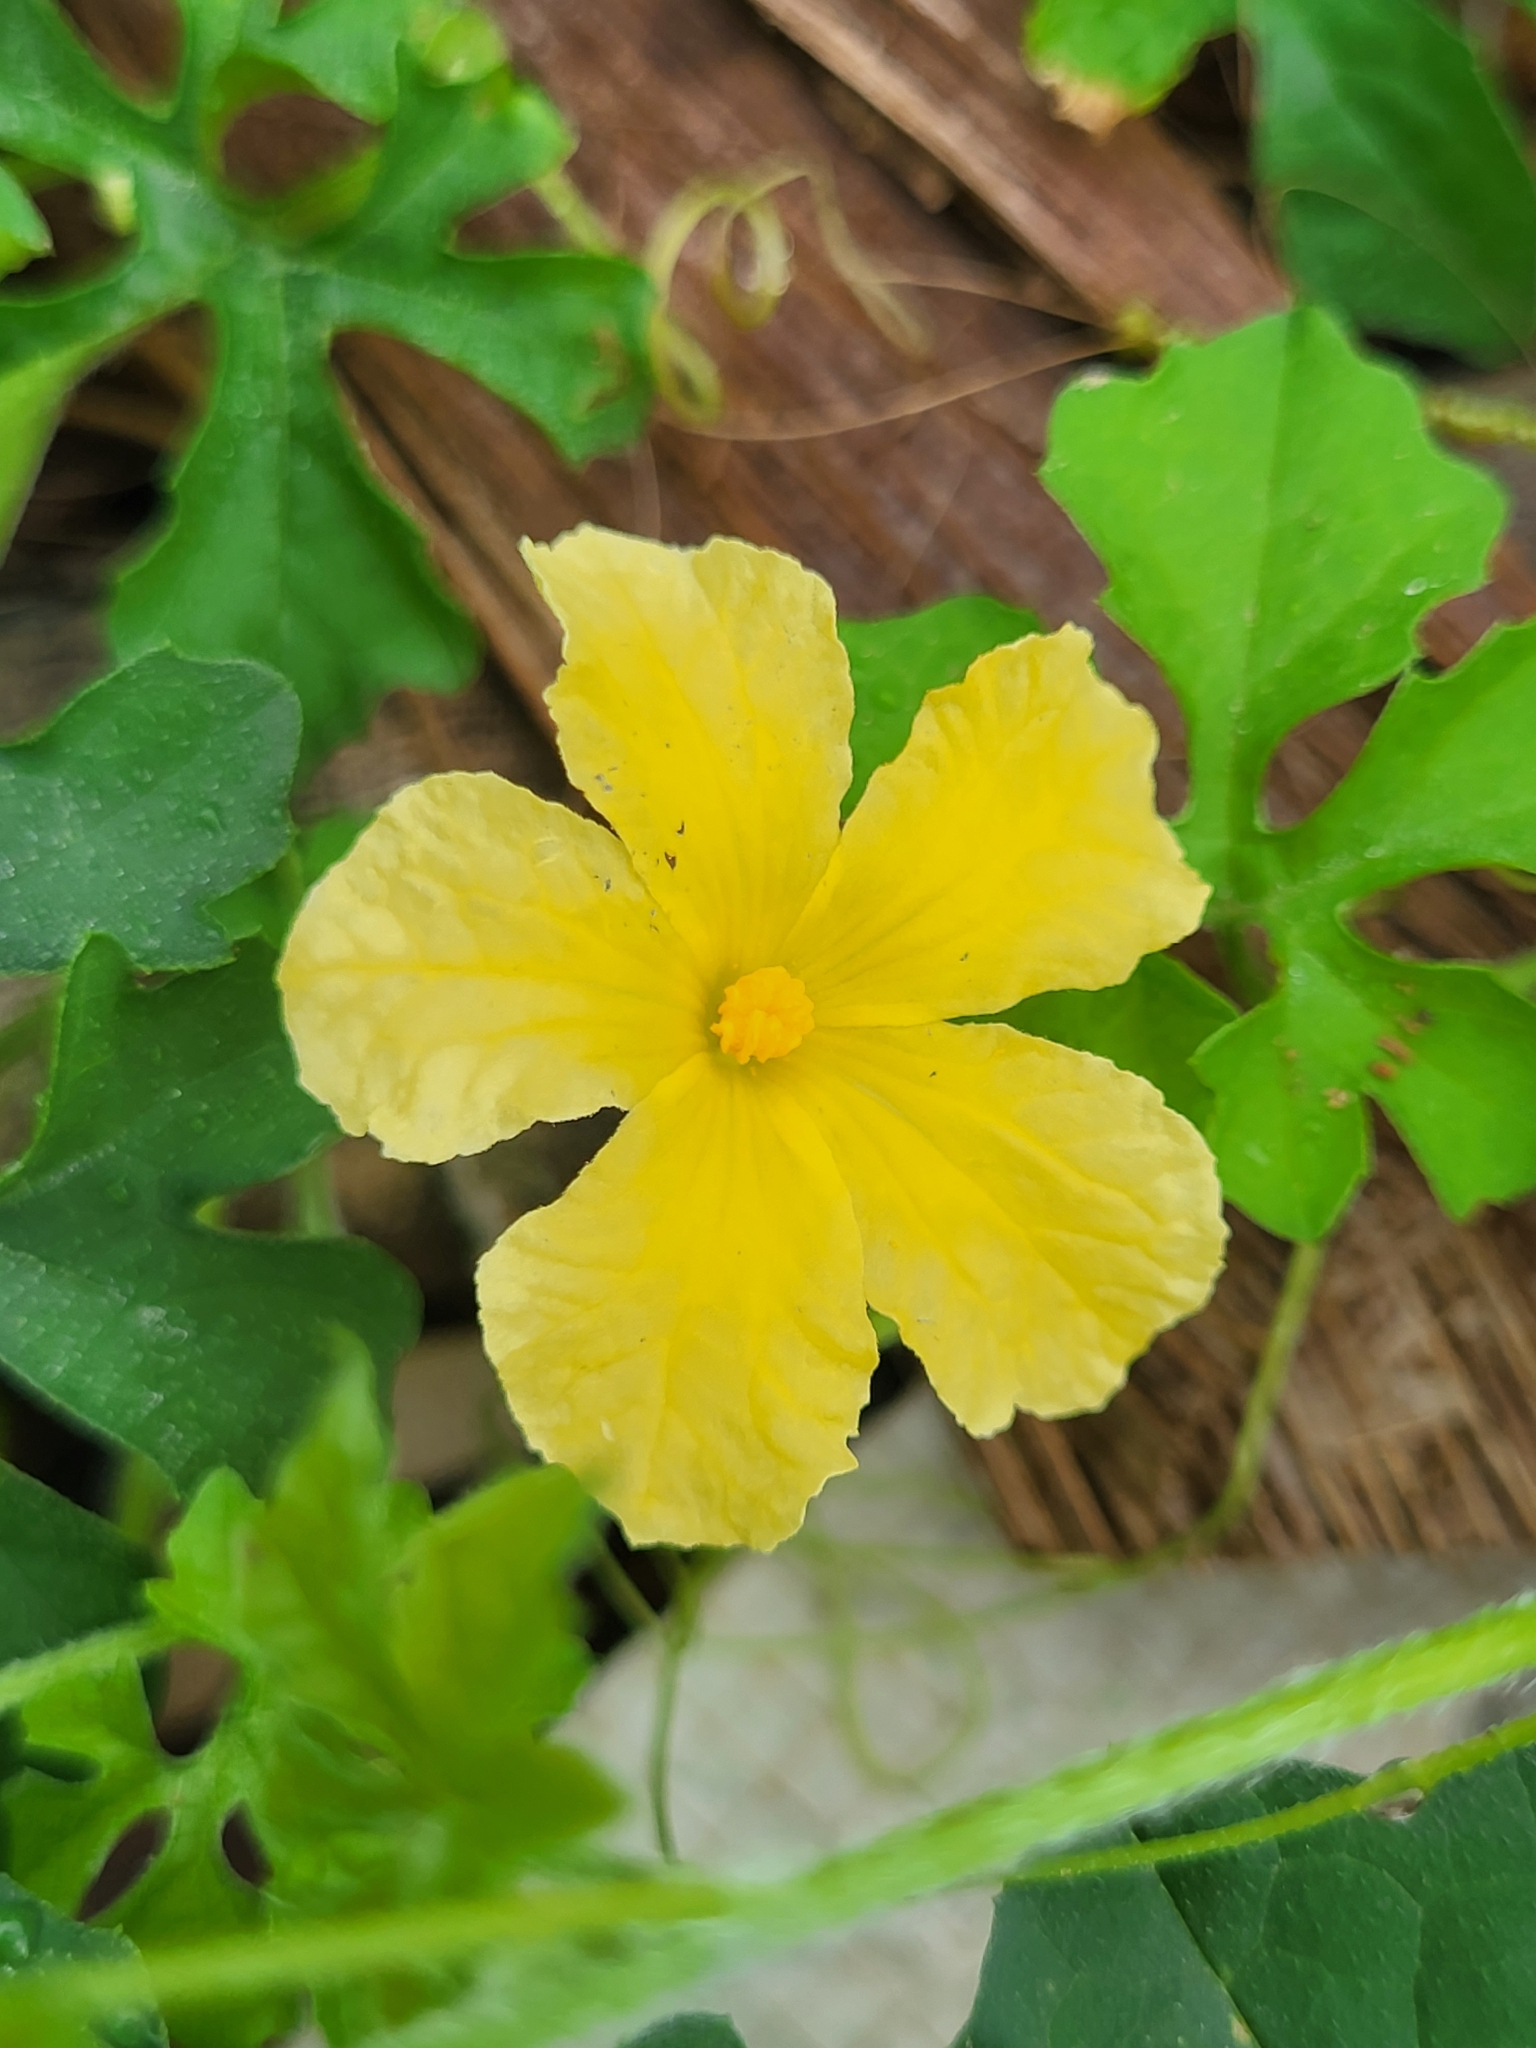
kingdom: Plantae
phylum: Tracheophyta
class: Magnoliopsida
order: Cucurbitales
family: Cucurbitaceae
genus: Momordica
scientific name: Momordica charantia
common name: Balsampear
